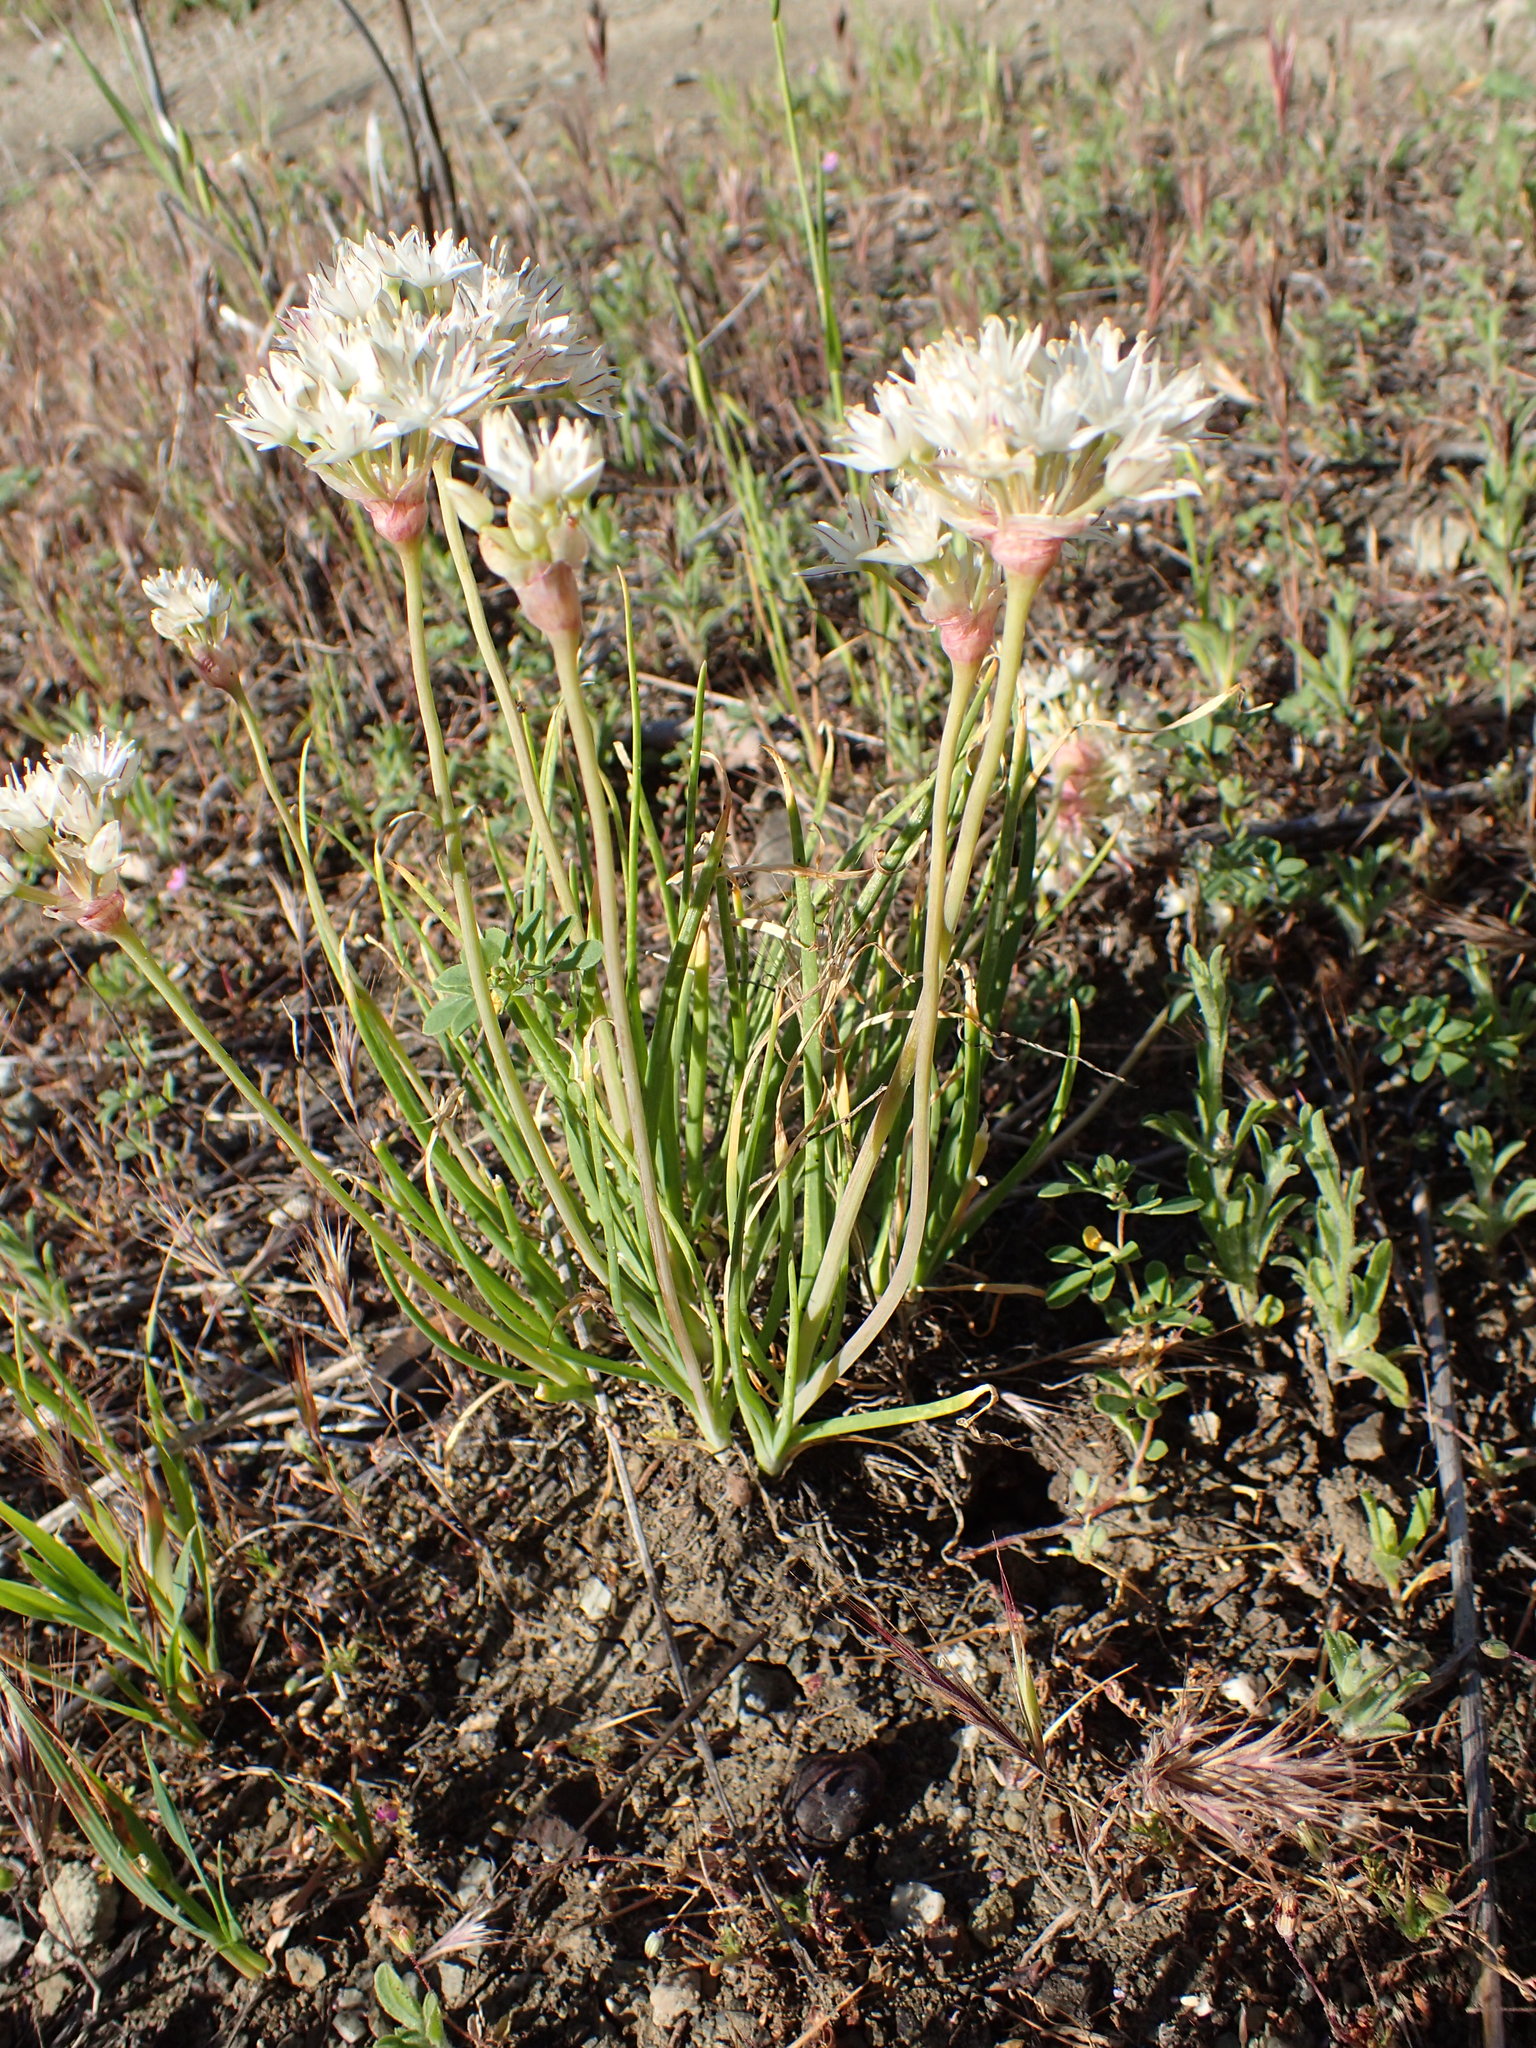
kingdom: Plantae
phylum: Tracheophyta
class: Liliopsida
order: Asparagales
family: Amaryllidaceae
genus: Allium
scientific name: Allium haematochiton
